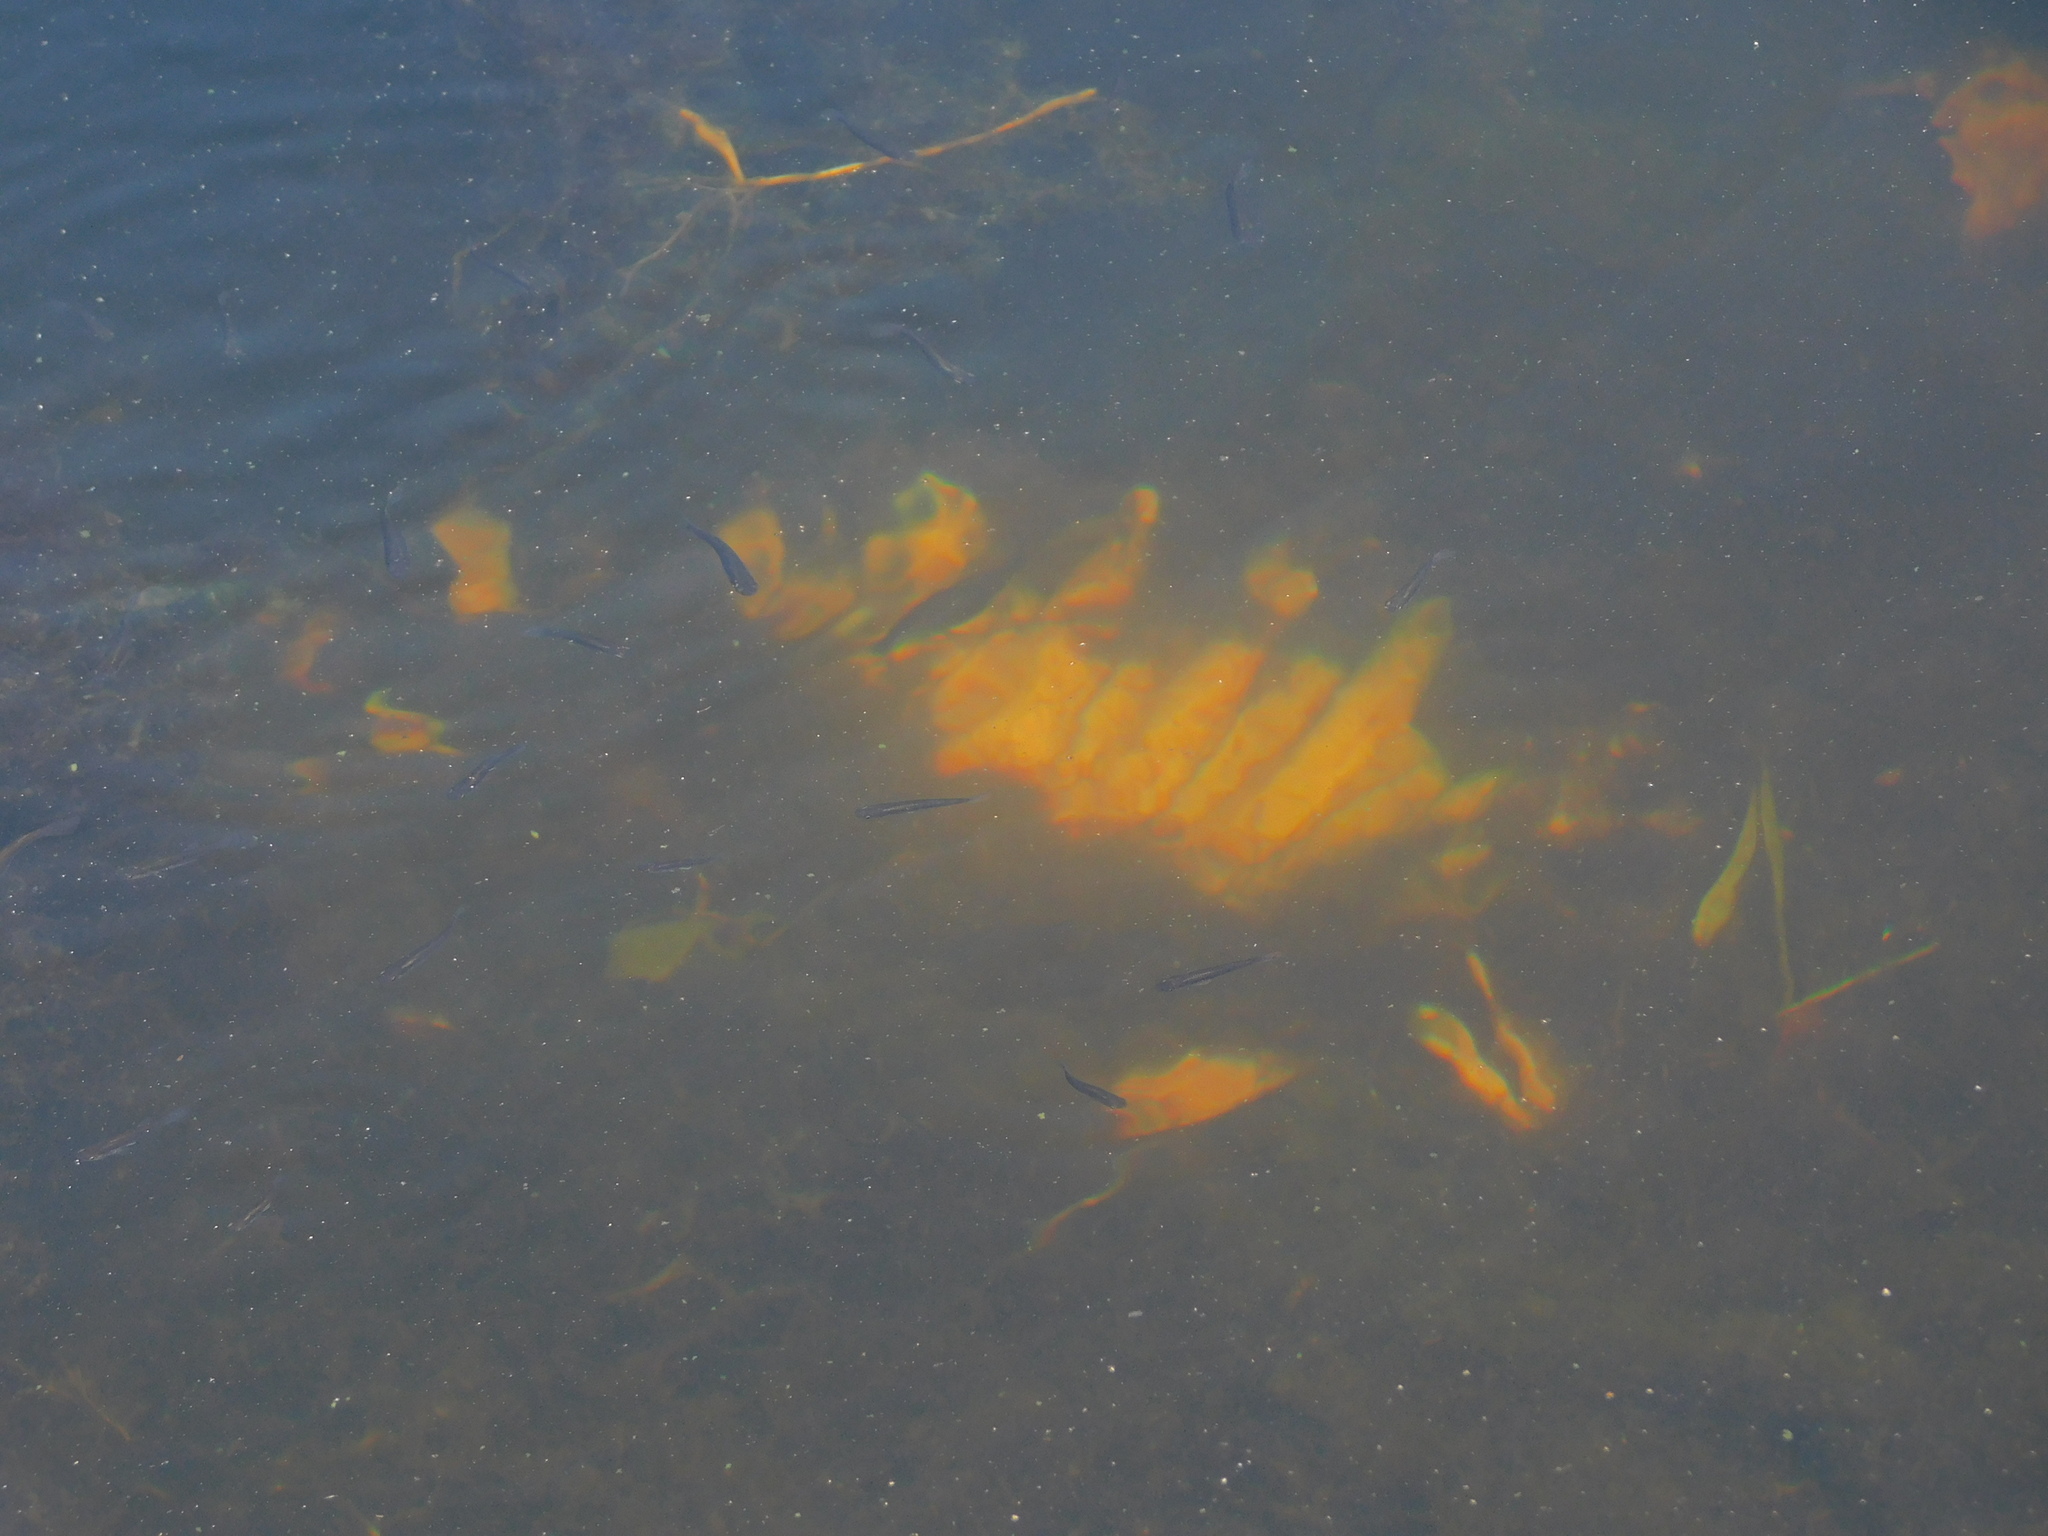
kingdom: Animalia
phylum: Chordata
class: Testudines
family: Trionychidae
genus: Apalone
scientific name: Apalone ferox
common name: Florida softshell turtle
